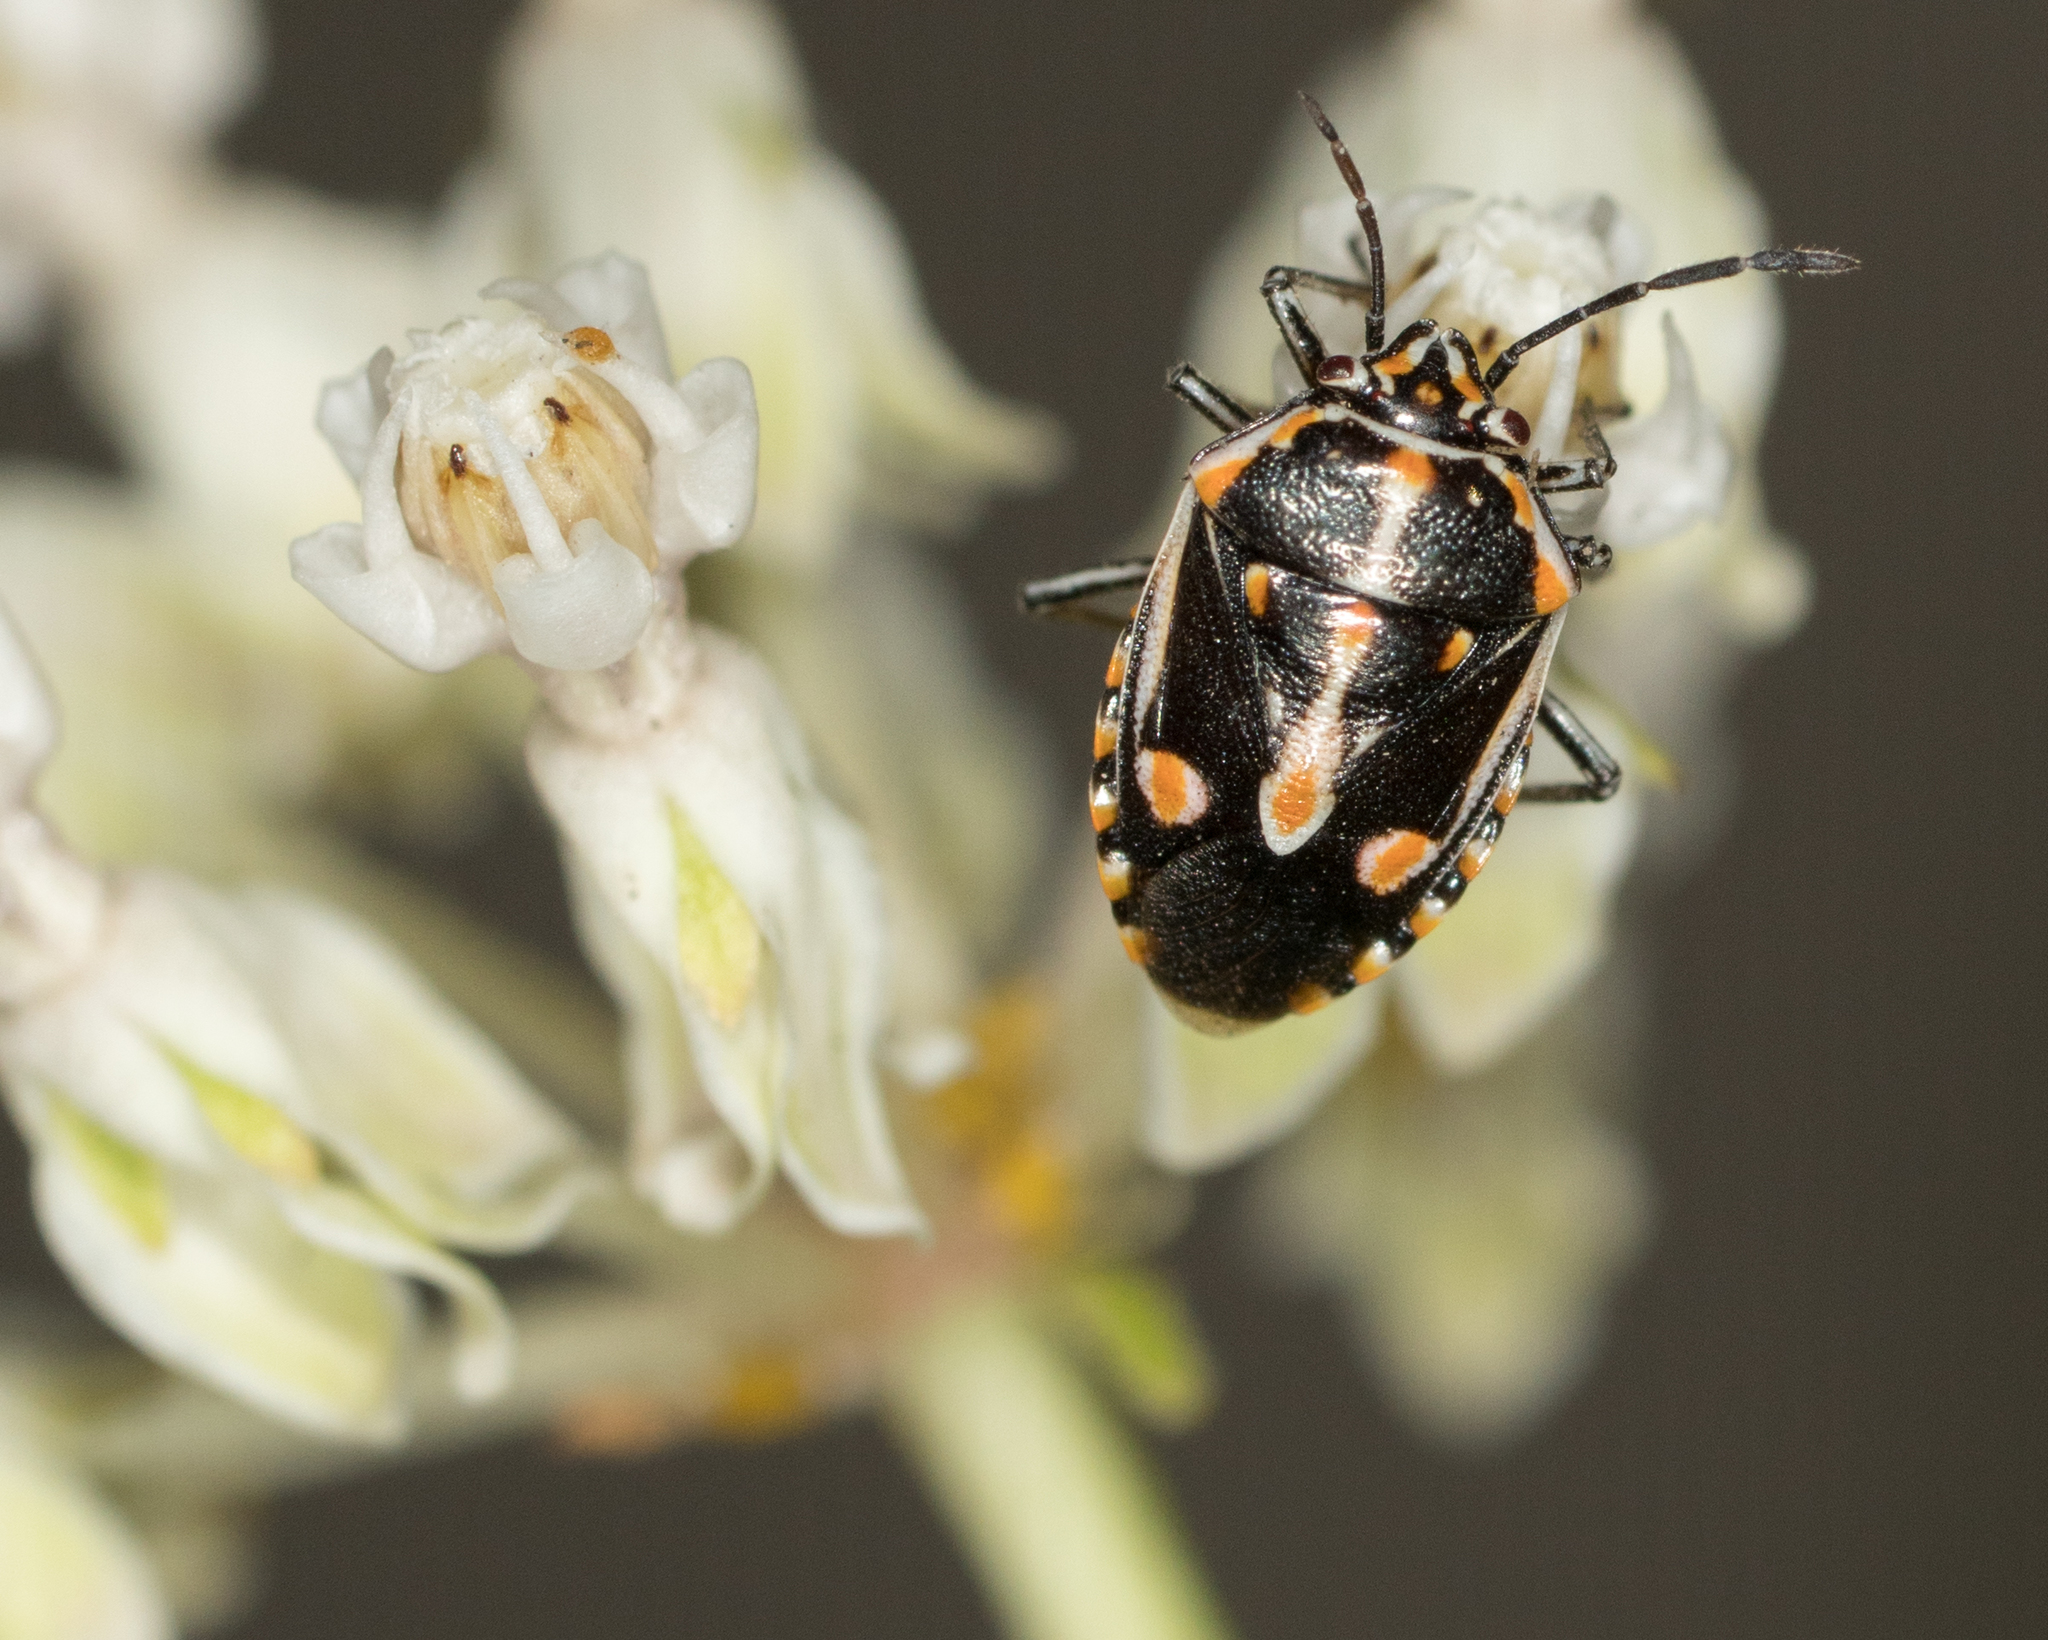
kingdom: Animalia
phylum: Arthropoda
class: Insecta
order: Hemiptera
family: Pentatomidae
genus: Bagrada
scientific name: Bagrada hilaris
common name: Bagrada bug
